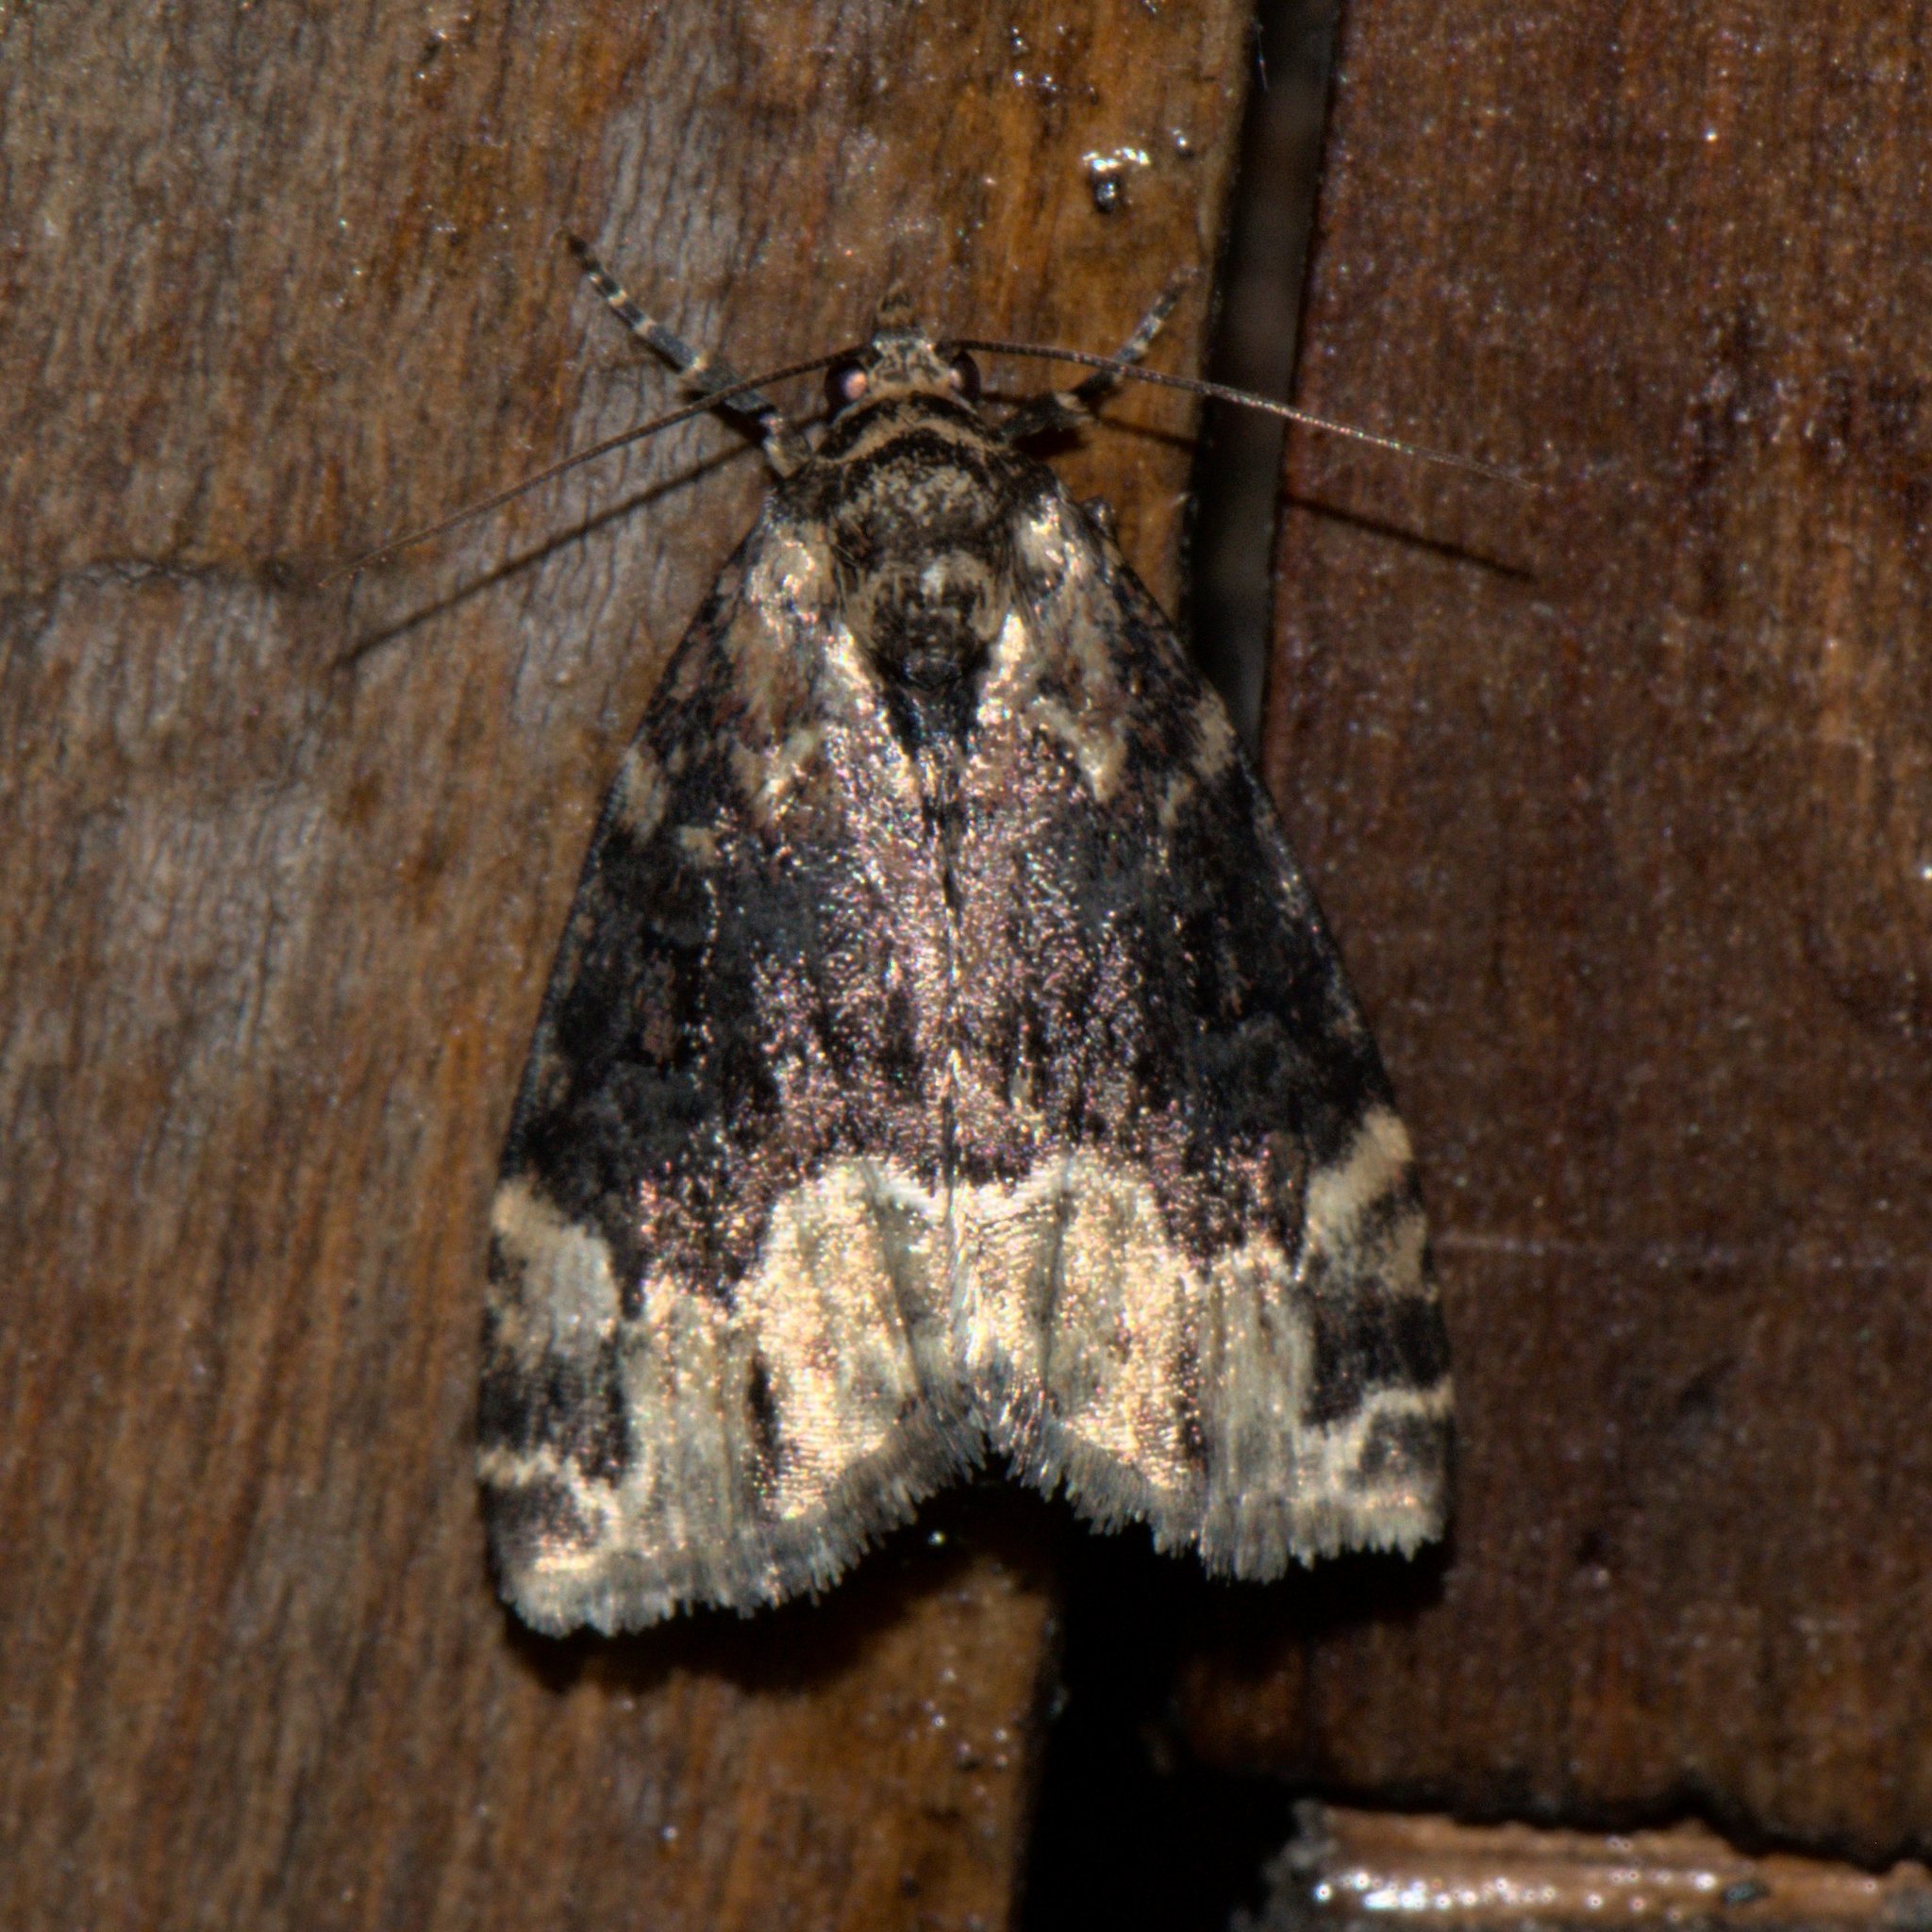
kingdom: Animalia
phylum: Arthropoda
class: Insecta
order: Lepidoptera
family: Erebidae
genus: Koyaga
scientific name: Koyaga
